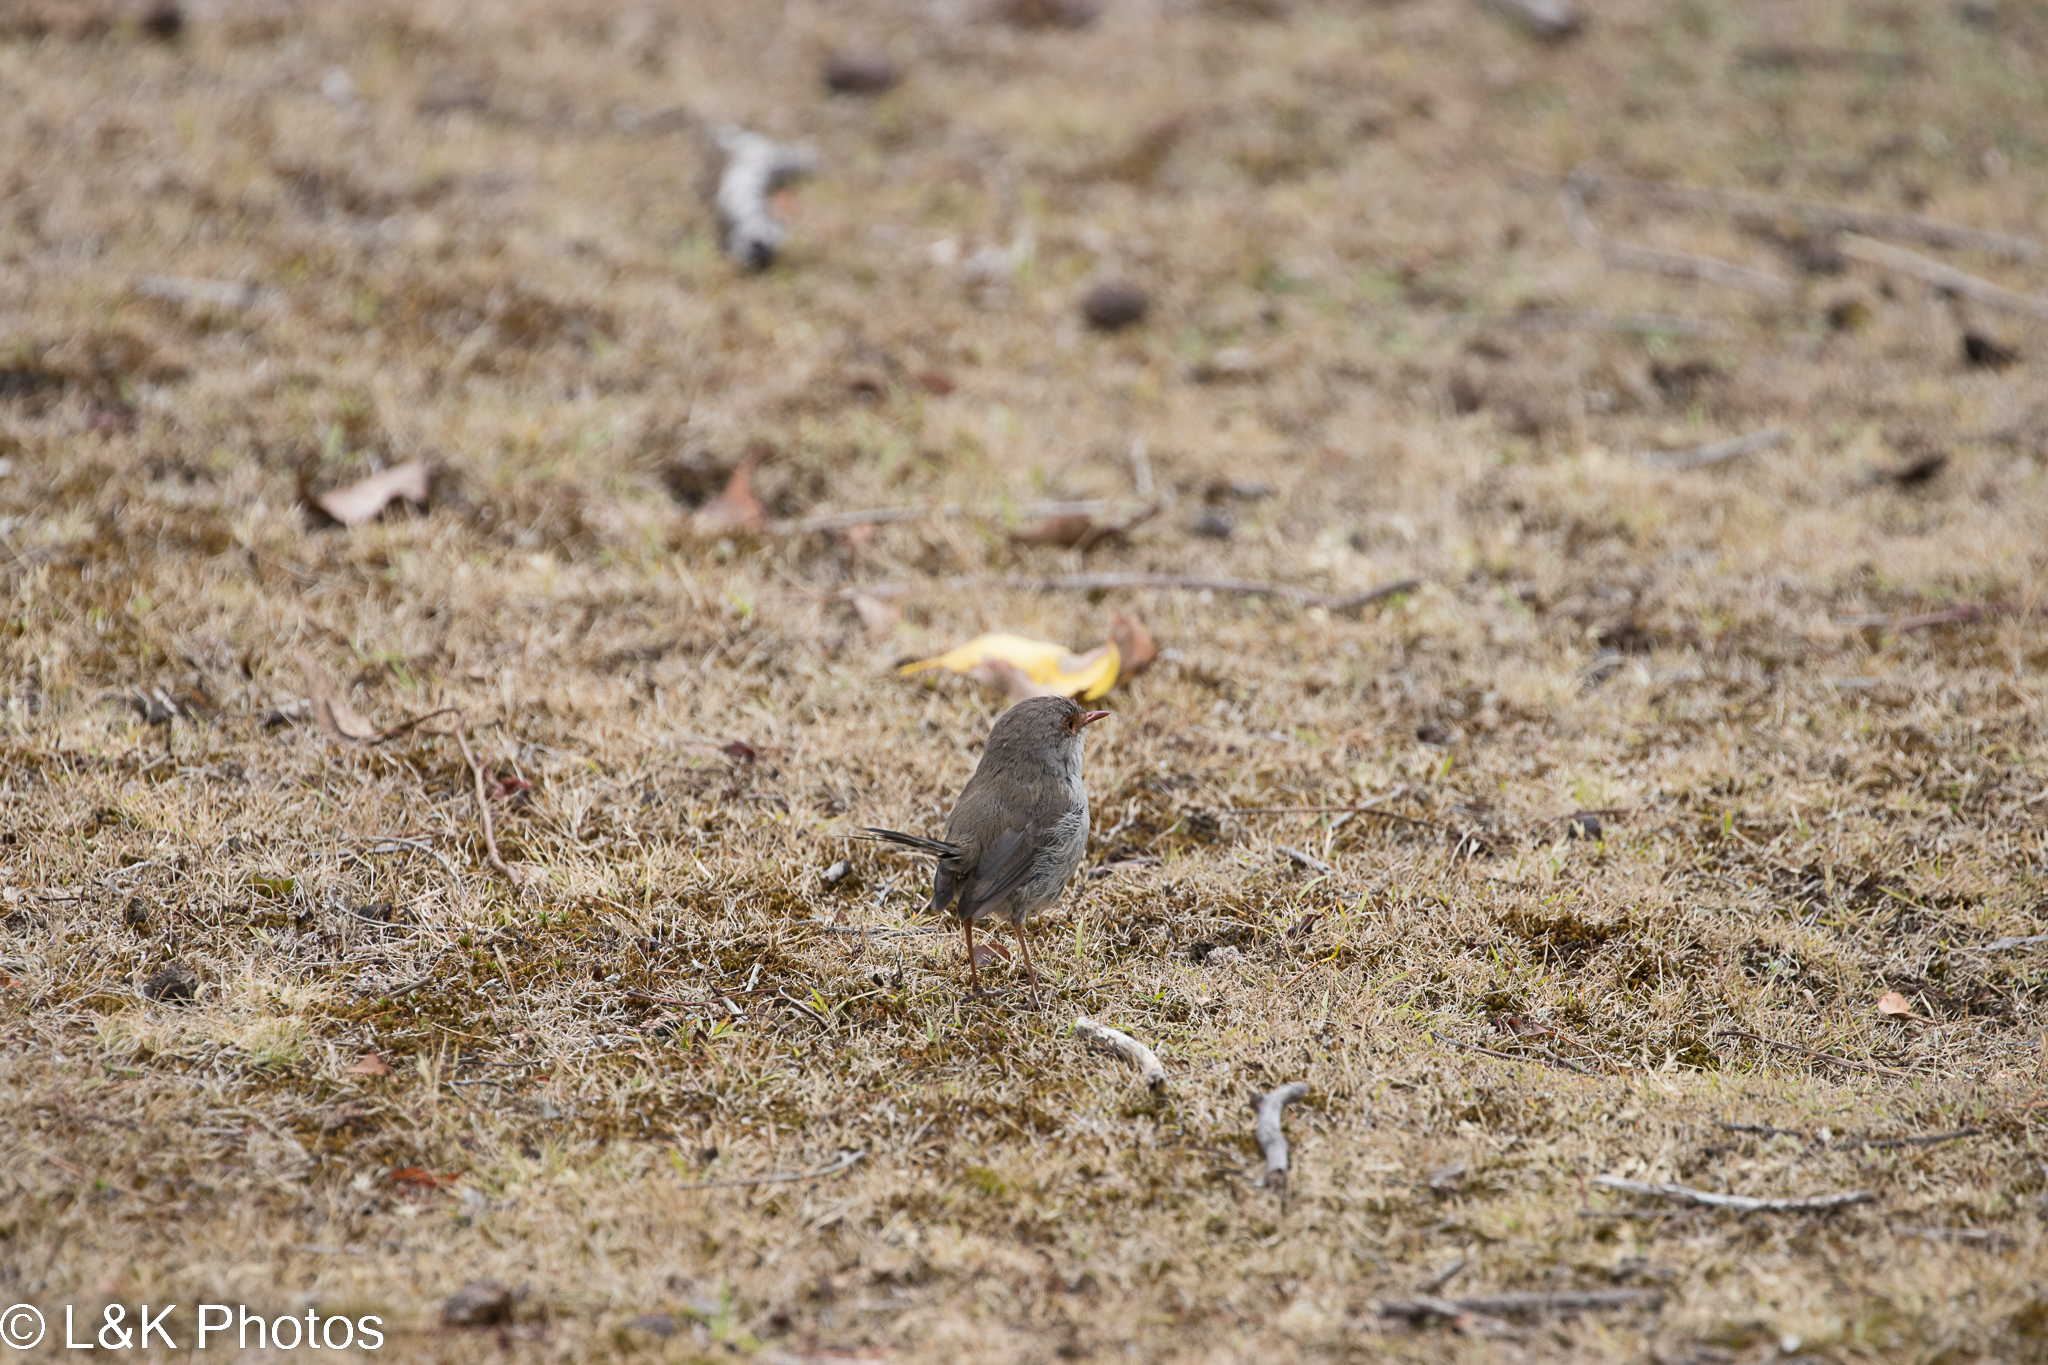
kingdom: Animalia
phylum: Chordata
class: Aves
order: Passeriformes
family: Maluridae
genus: Malurus
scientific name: Malurus cyaneus
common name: Superb fairywren
